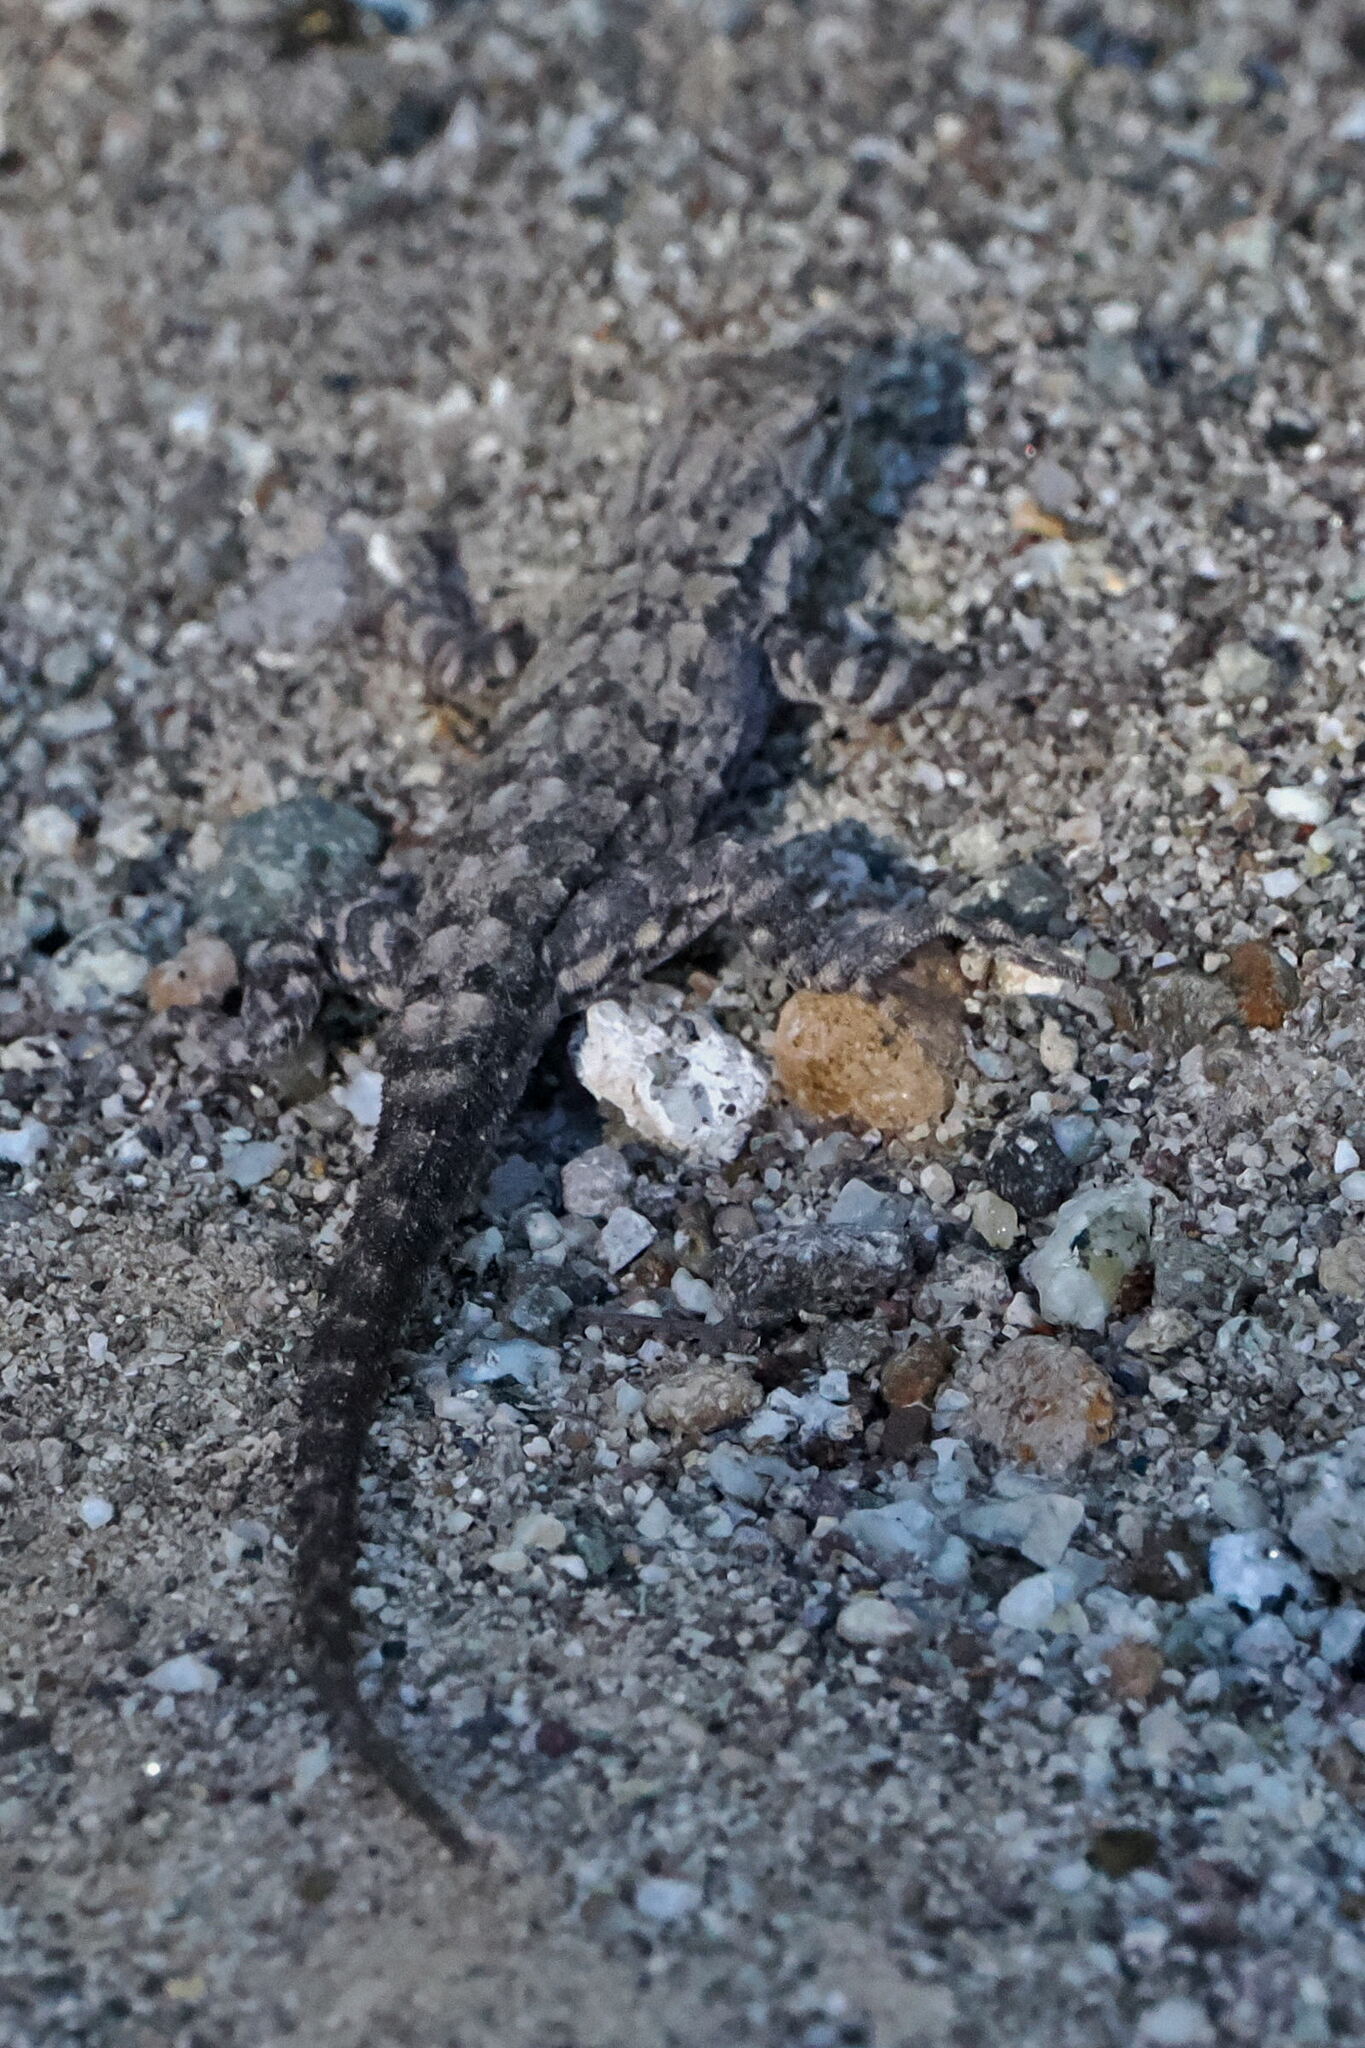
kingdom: Animalia
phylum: Chordata
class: Squamata
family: Phrynosomatidae
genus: Urosaurus
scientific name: Urosaurus nigricauda
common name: Baja california brush lizard
